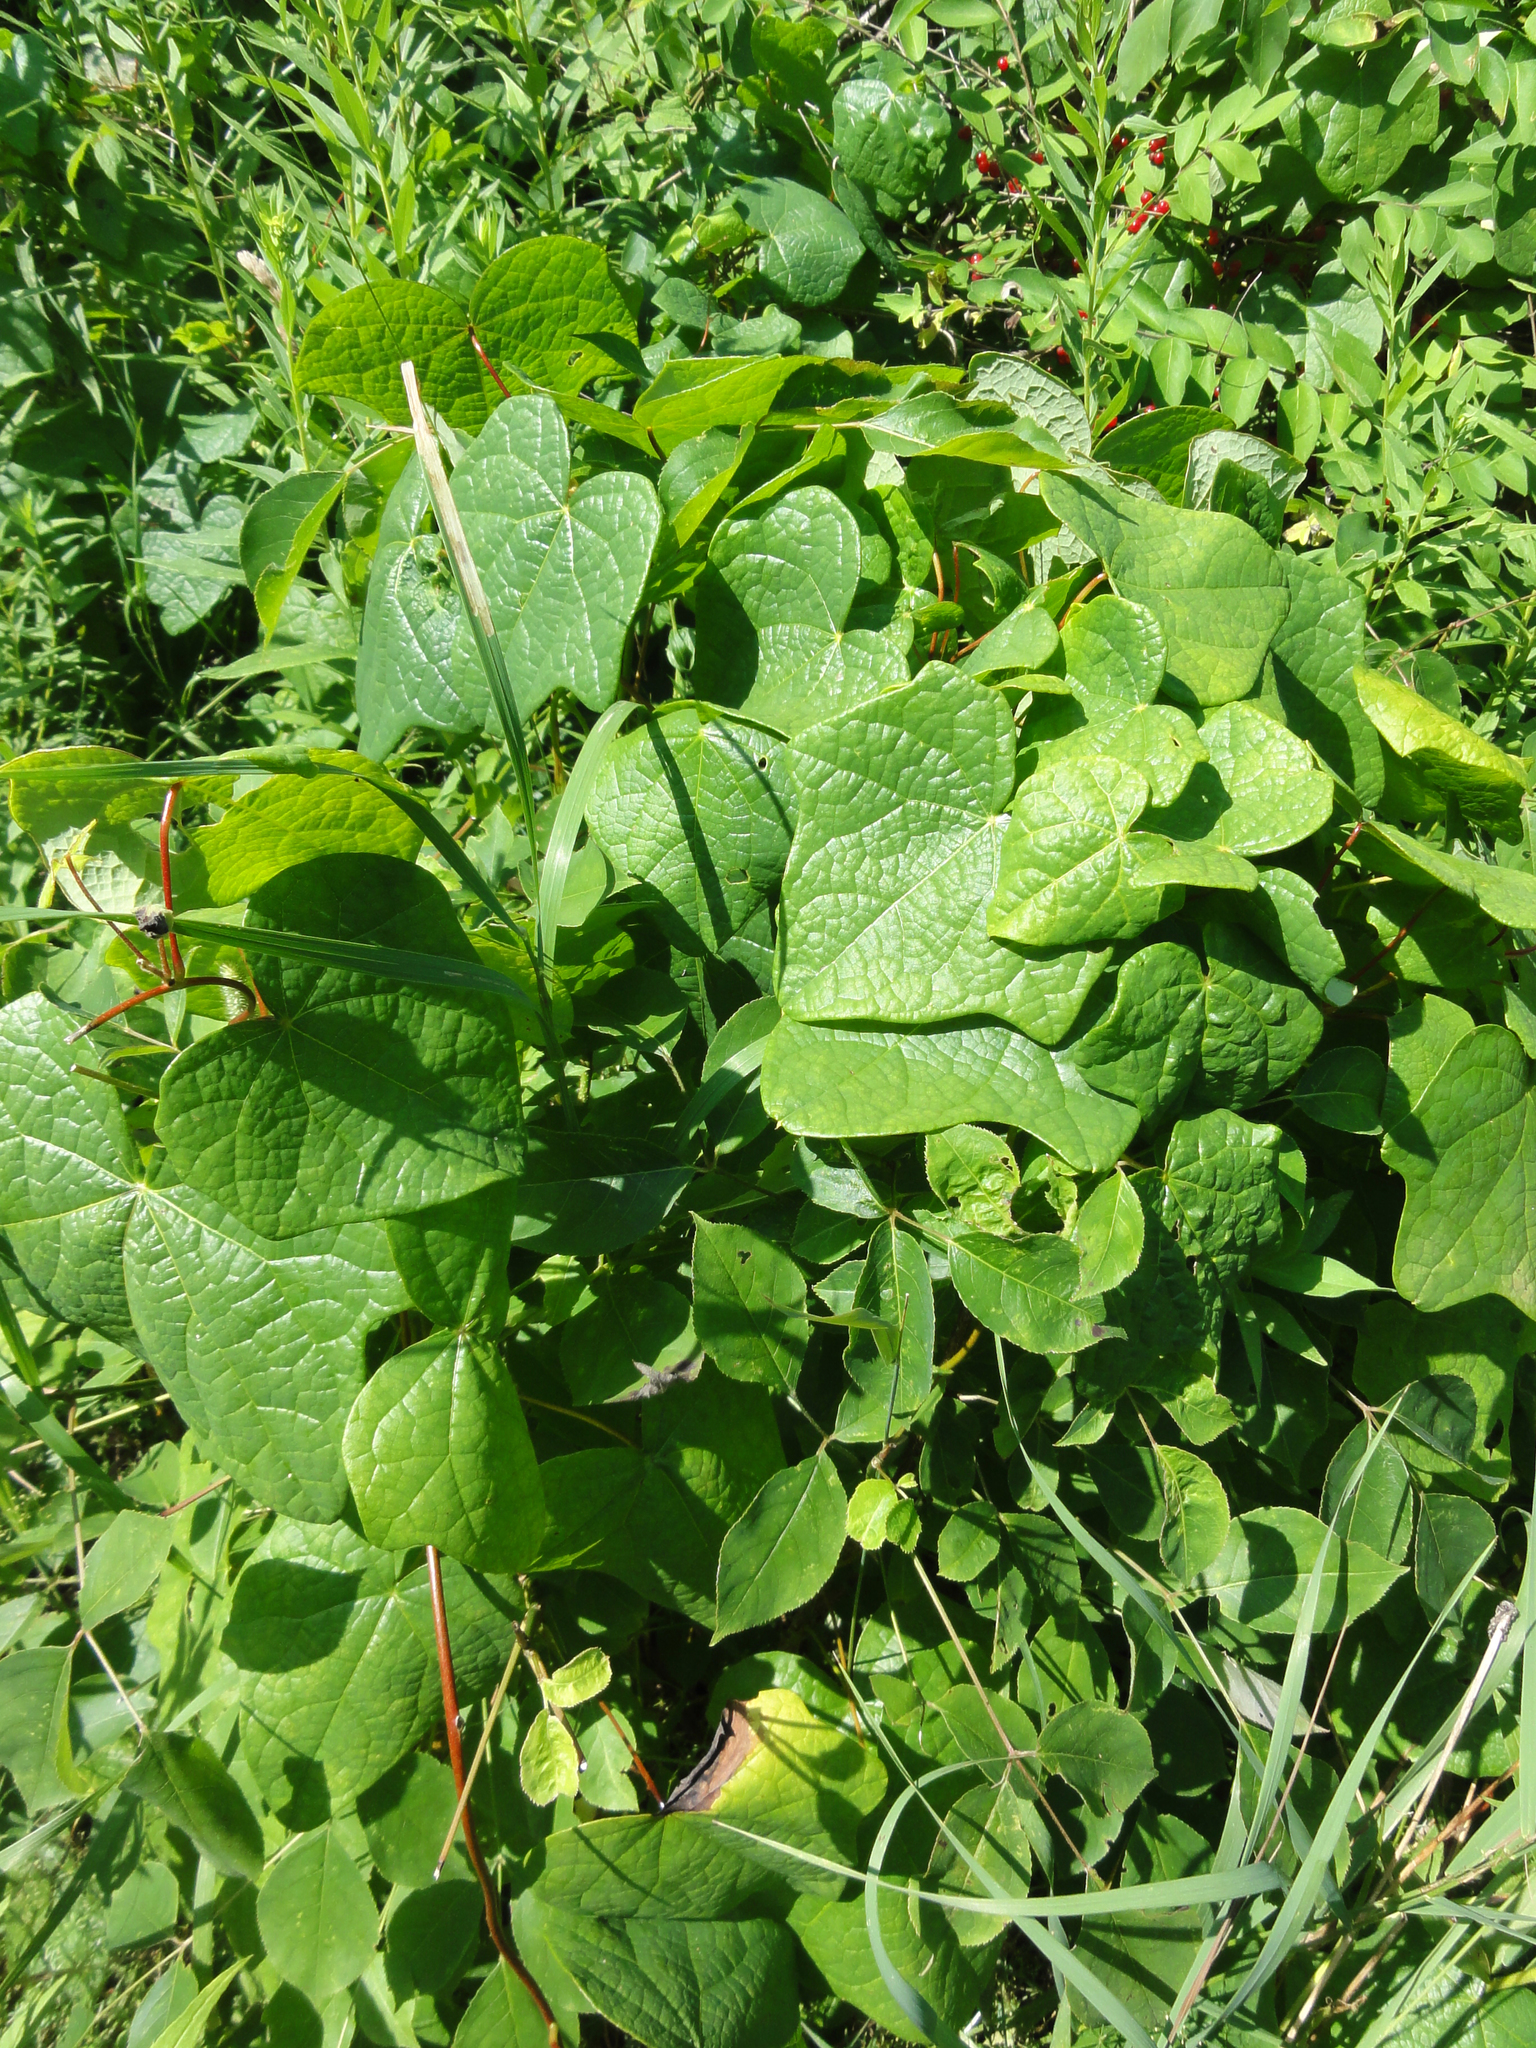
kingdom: Plantae
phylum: Tracheophyta
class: Magnoliopsida
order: Ranunculales
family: Menispermaceae
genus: Menispermum
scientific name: Menispermum canadense
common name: Moonseed
